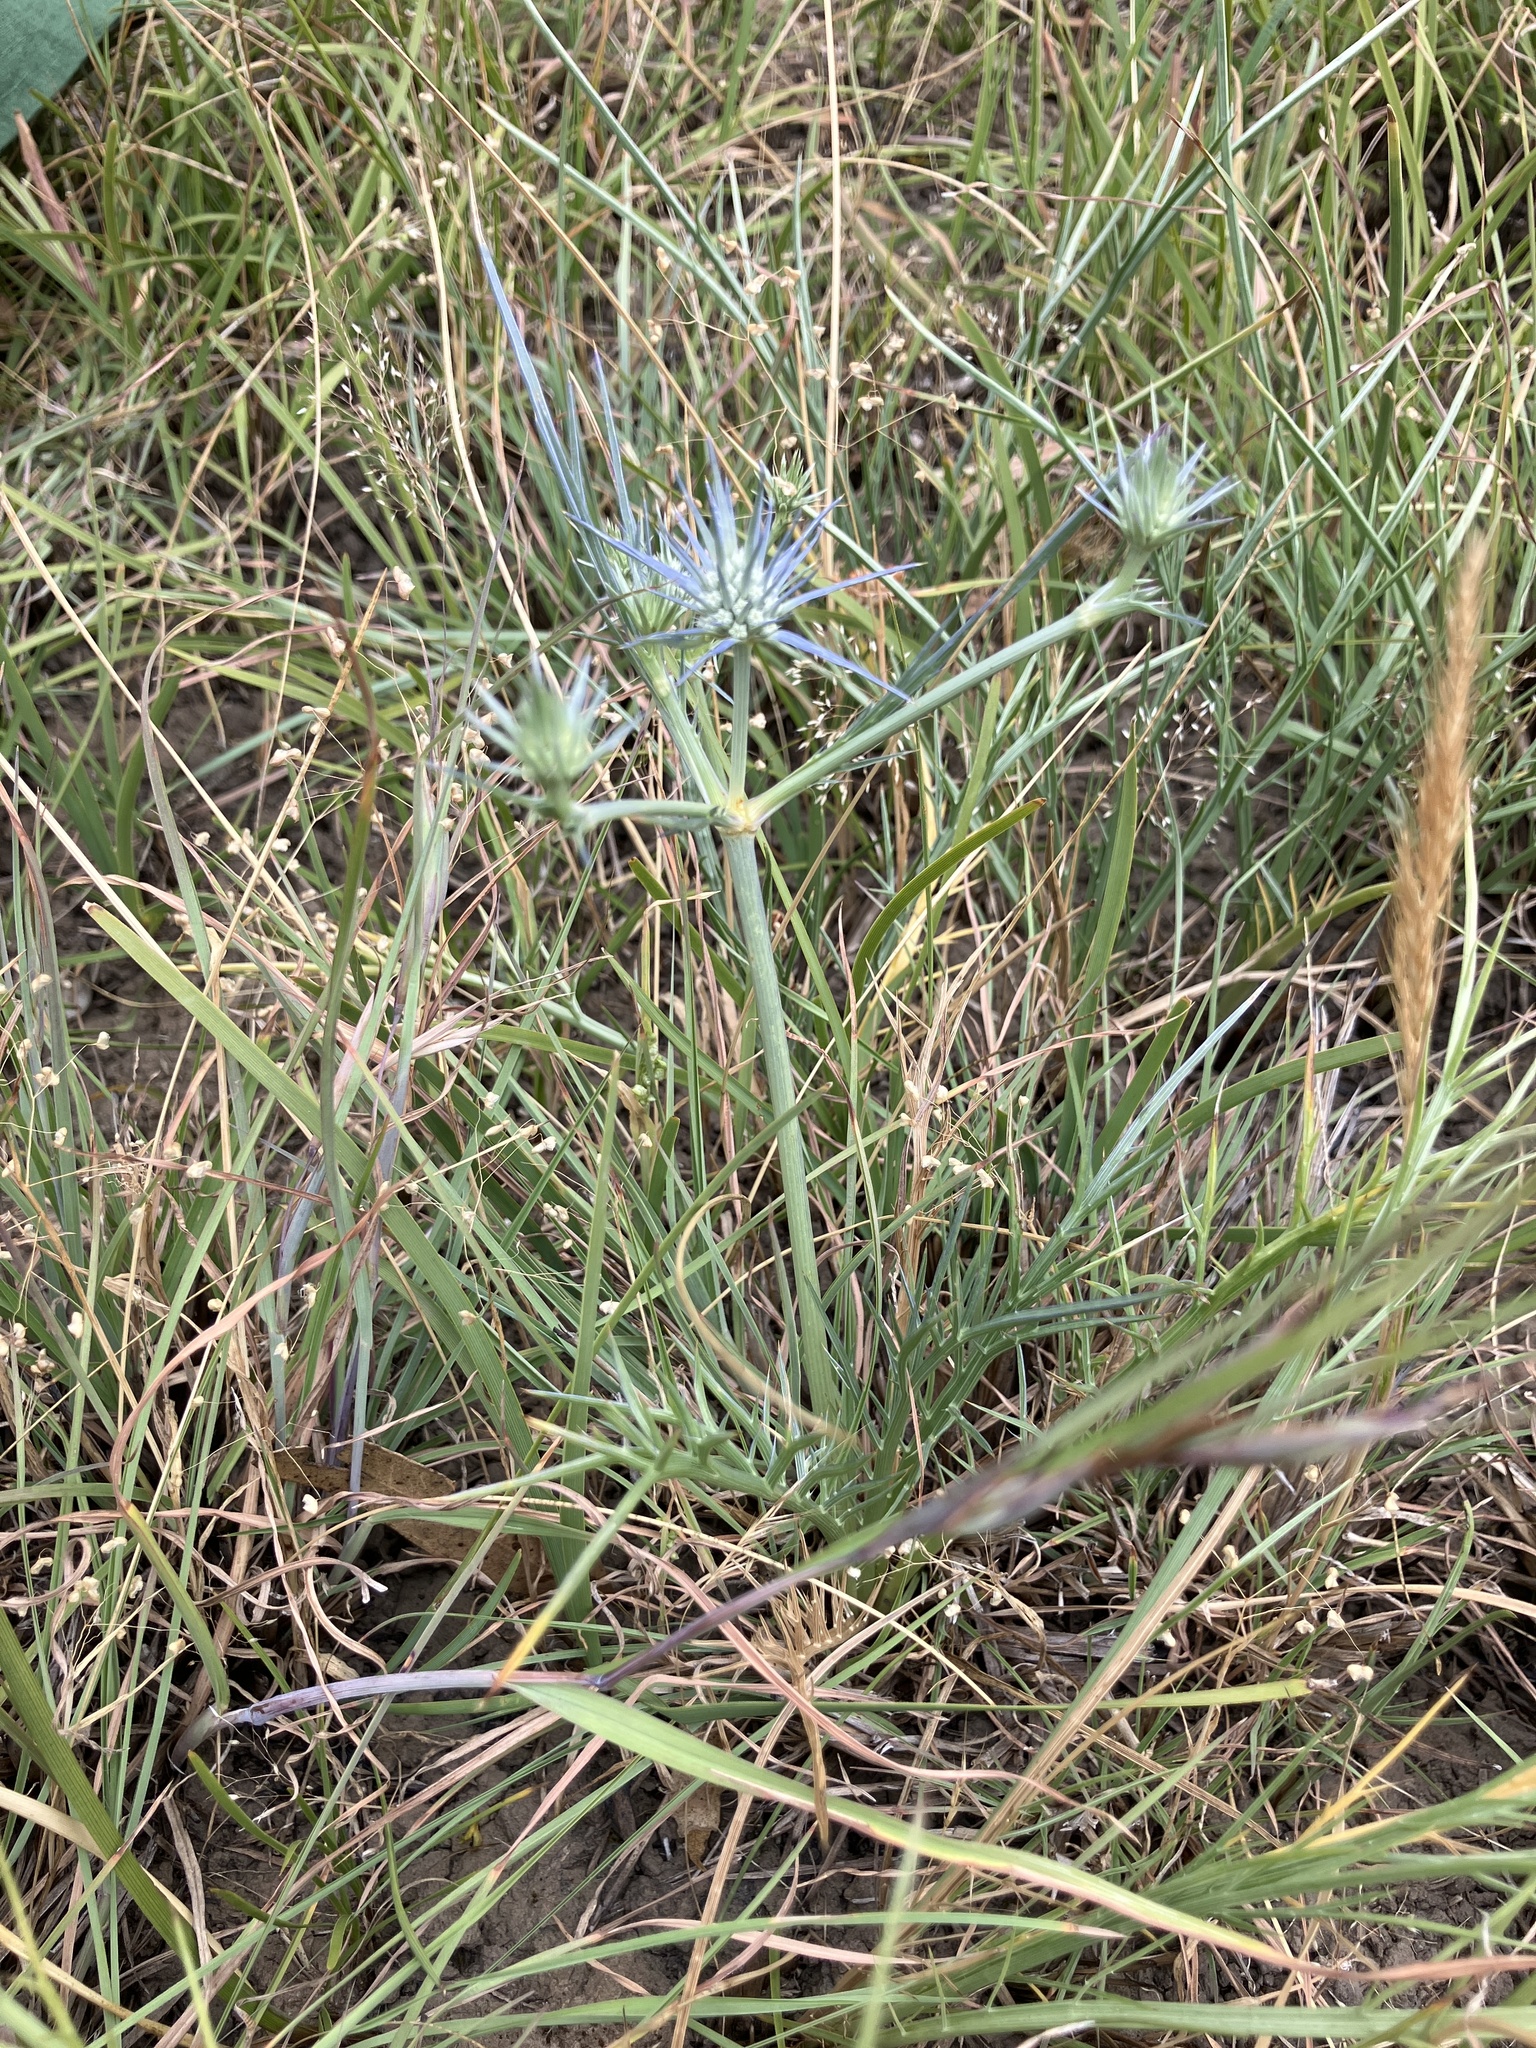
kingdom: Plantae
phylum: Tracheophyta
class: Magnoliopsida
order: Apiales
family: Apiaceae
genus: Eryngium
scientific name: Eryngium ovinum
